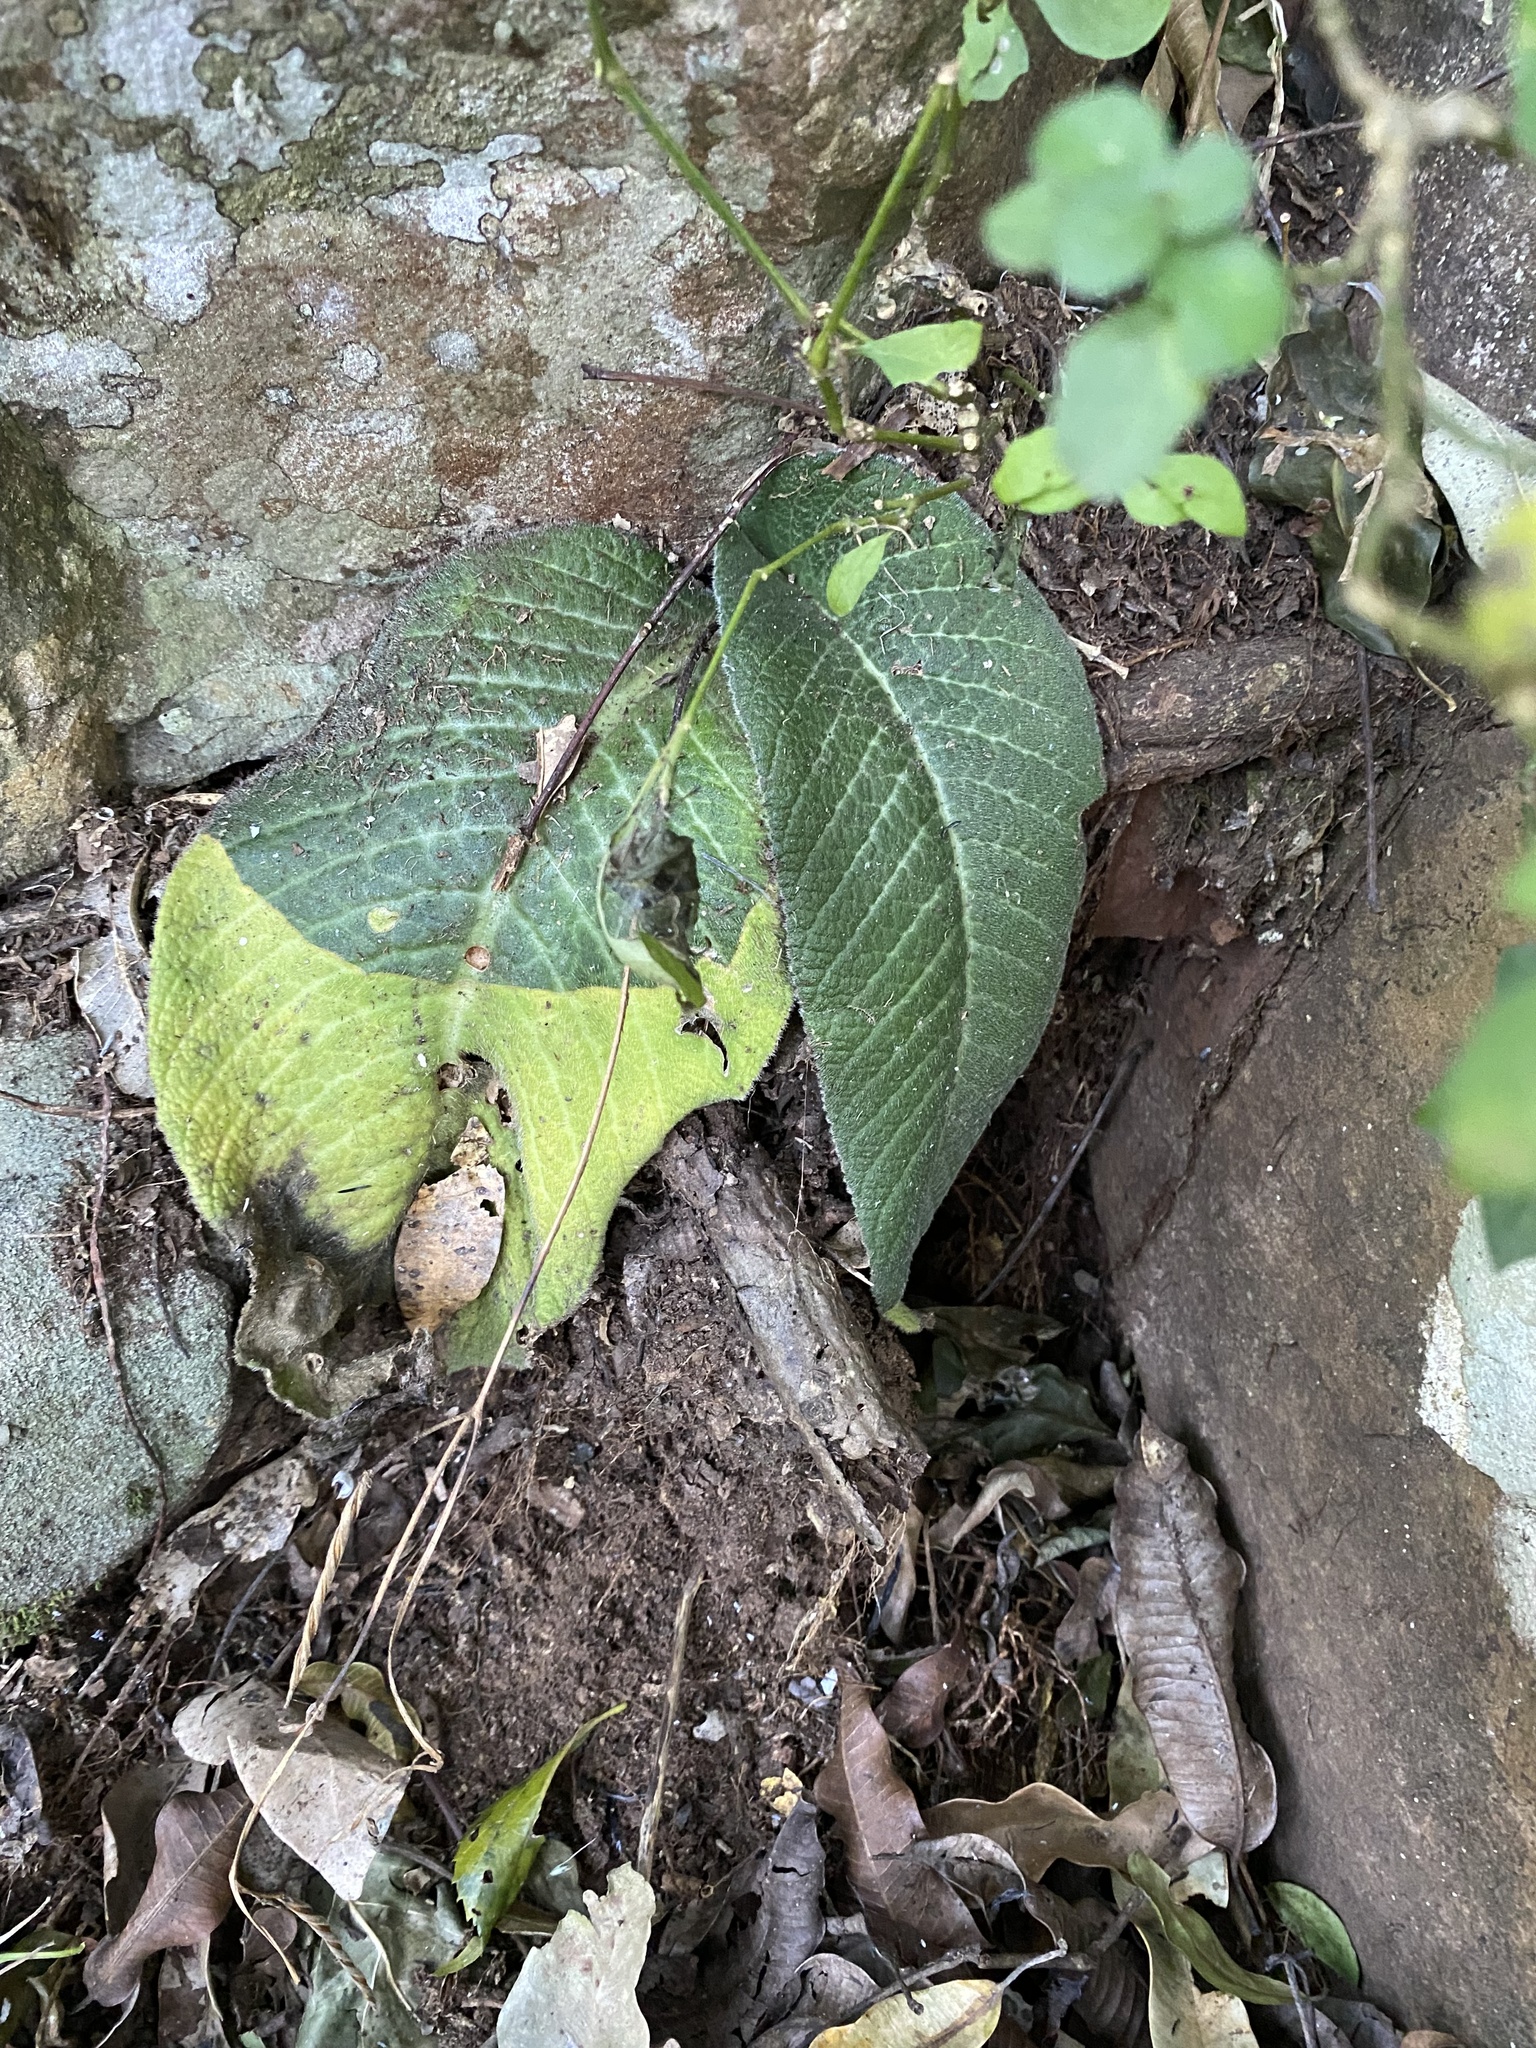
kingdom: Plantae
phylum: Tracheophyta
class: Magnoliopsida
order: Lamiales
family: Gesneriaceae
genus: Streptocarpus
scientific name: Streptocarpus polyanthus
